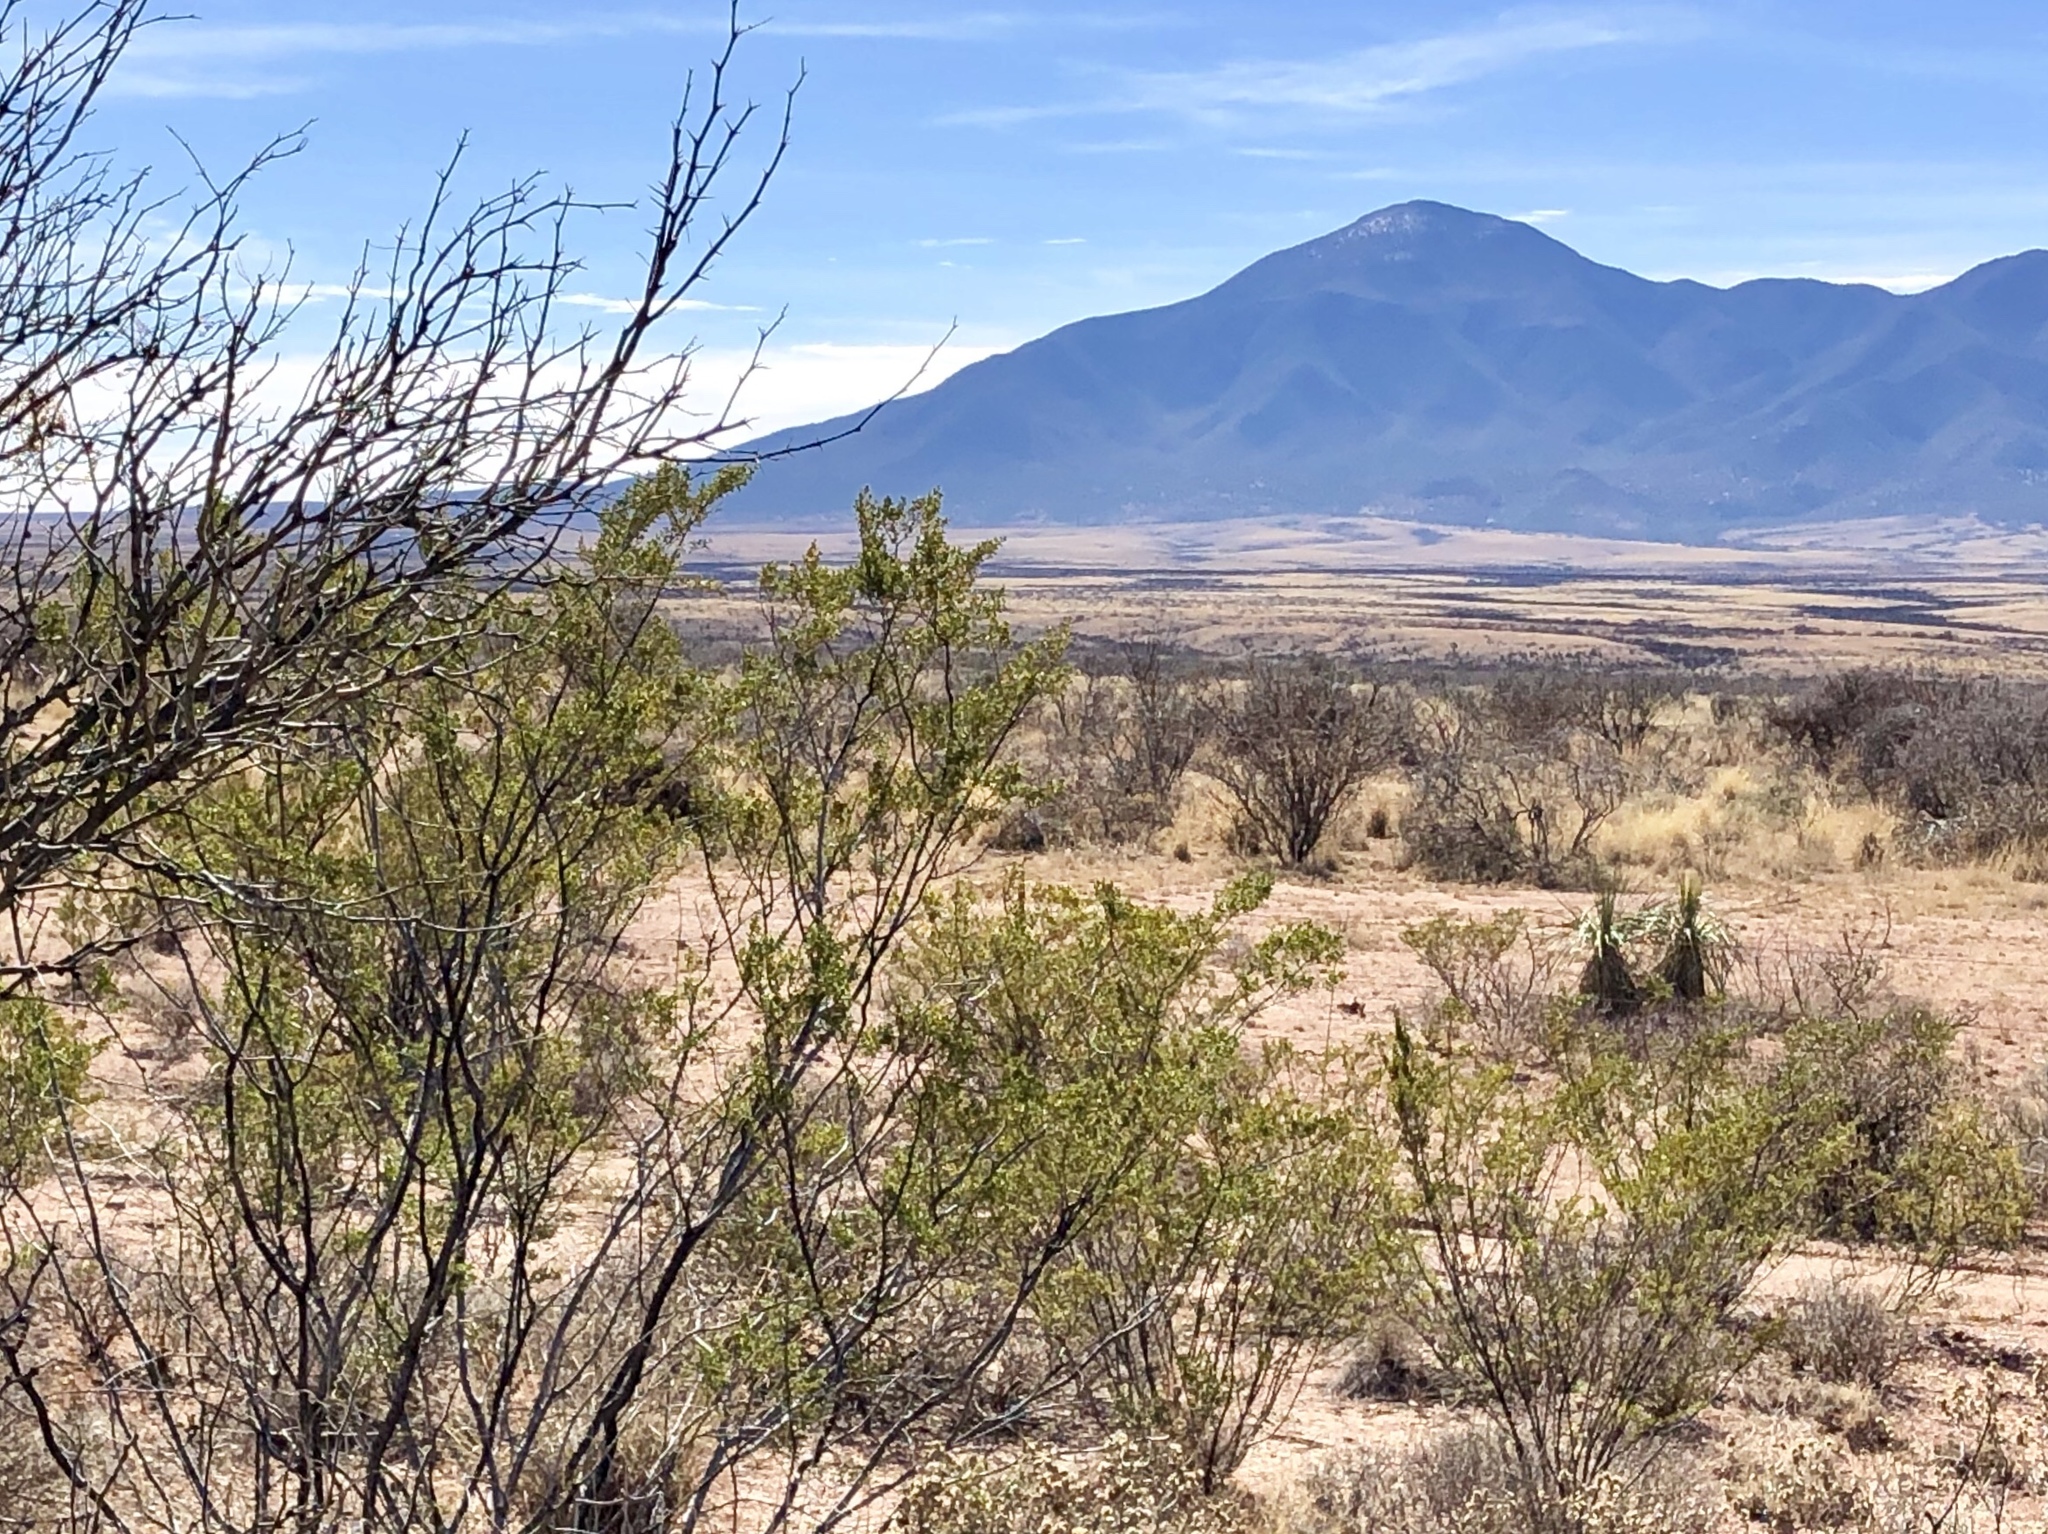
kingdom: Plantae
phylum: Tracheophyta
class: Magnoliopsida
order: Zygophyllales
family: Zygophyllaceae
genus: Larrea
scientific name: Larrea tridentata
